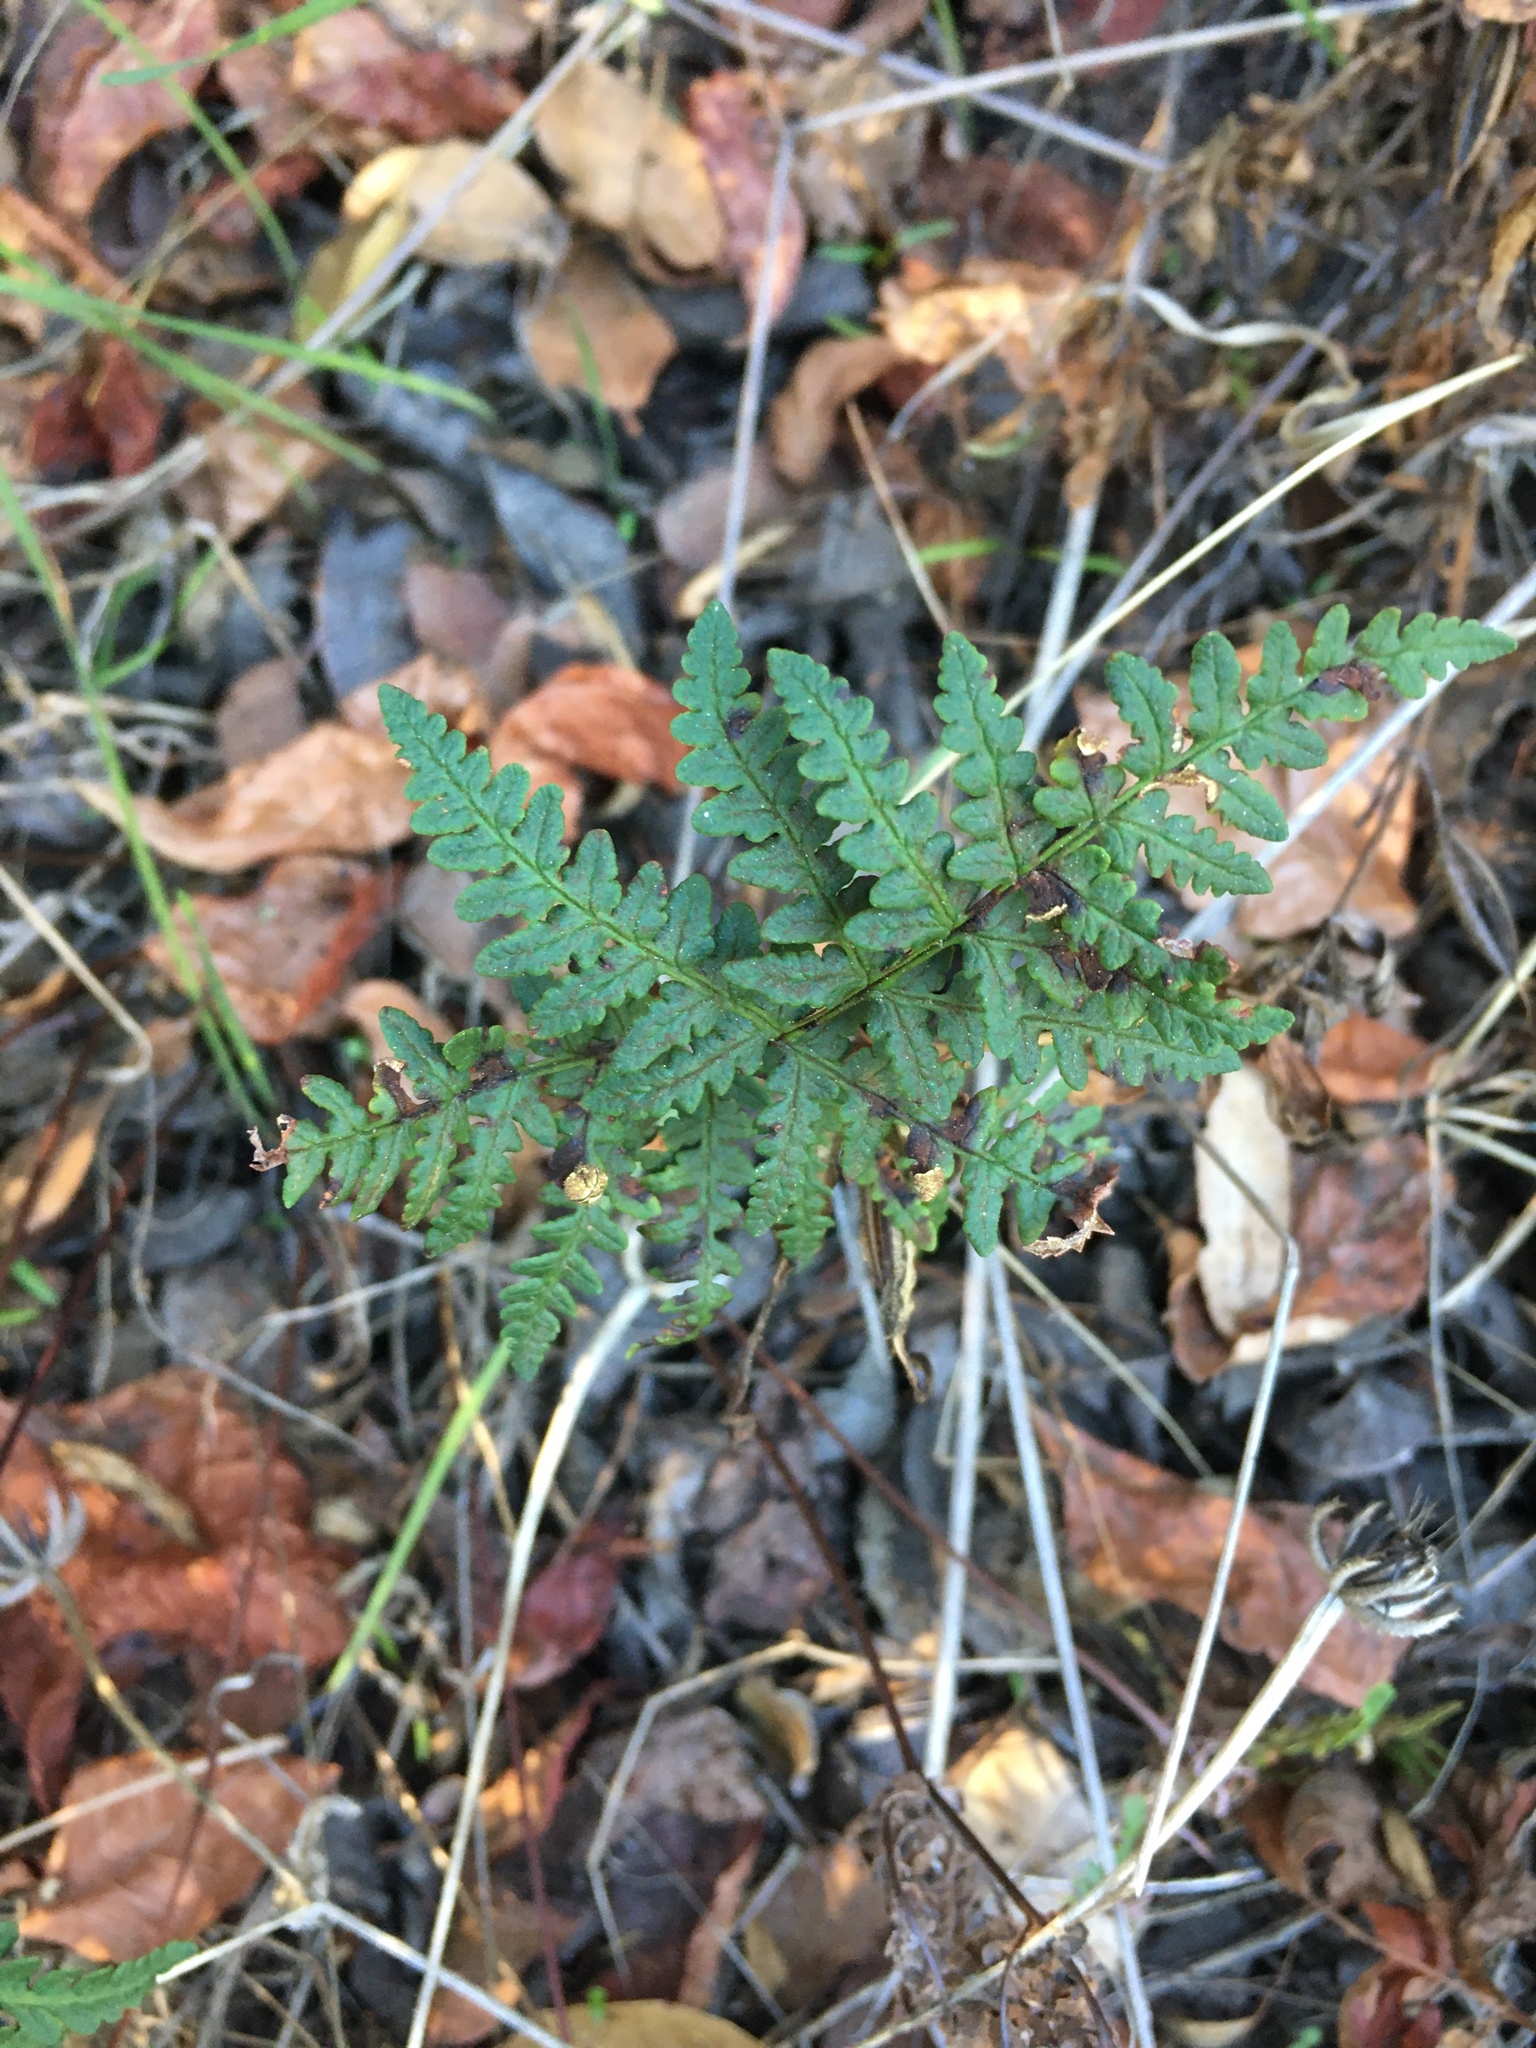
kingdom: Plantae
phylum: Tracheophyta
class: Polypodiopsida
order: Polypodiales
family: Pteridaceae
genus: Pentagramma
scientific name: Pentagramma triangularis
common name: Gold fern
